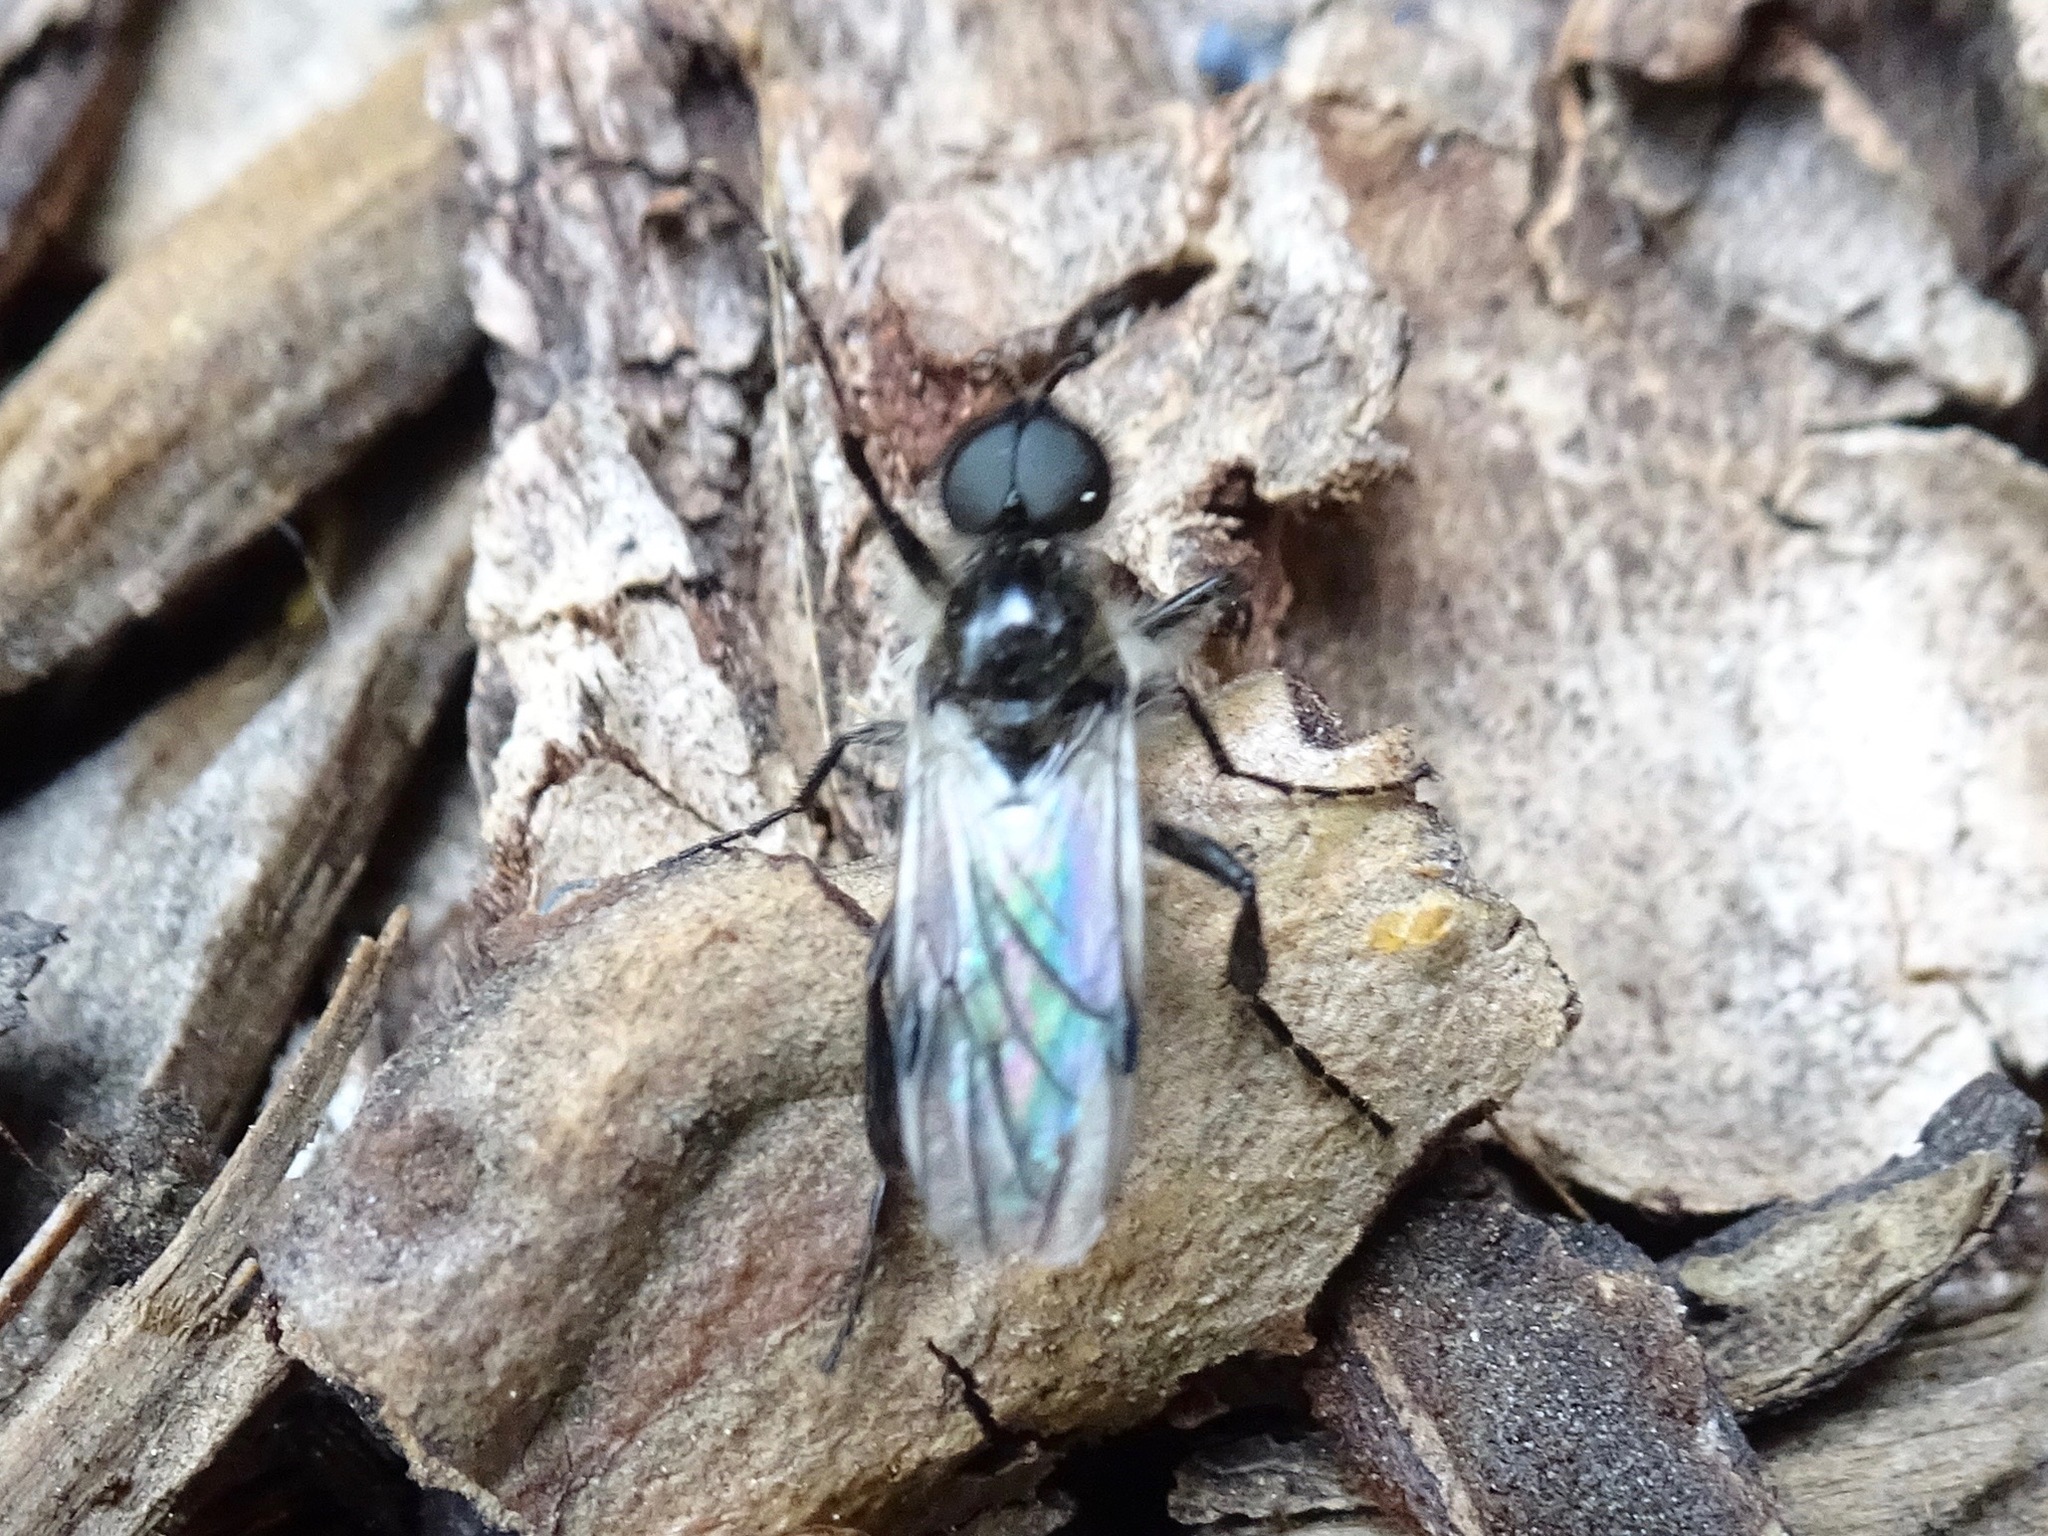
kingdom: Animalia
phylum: Arthropoda
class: Insecta
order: Diptera
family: Bibionidae
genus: Bibio
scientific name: Bibio albipennis
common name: White-winged march fly
